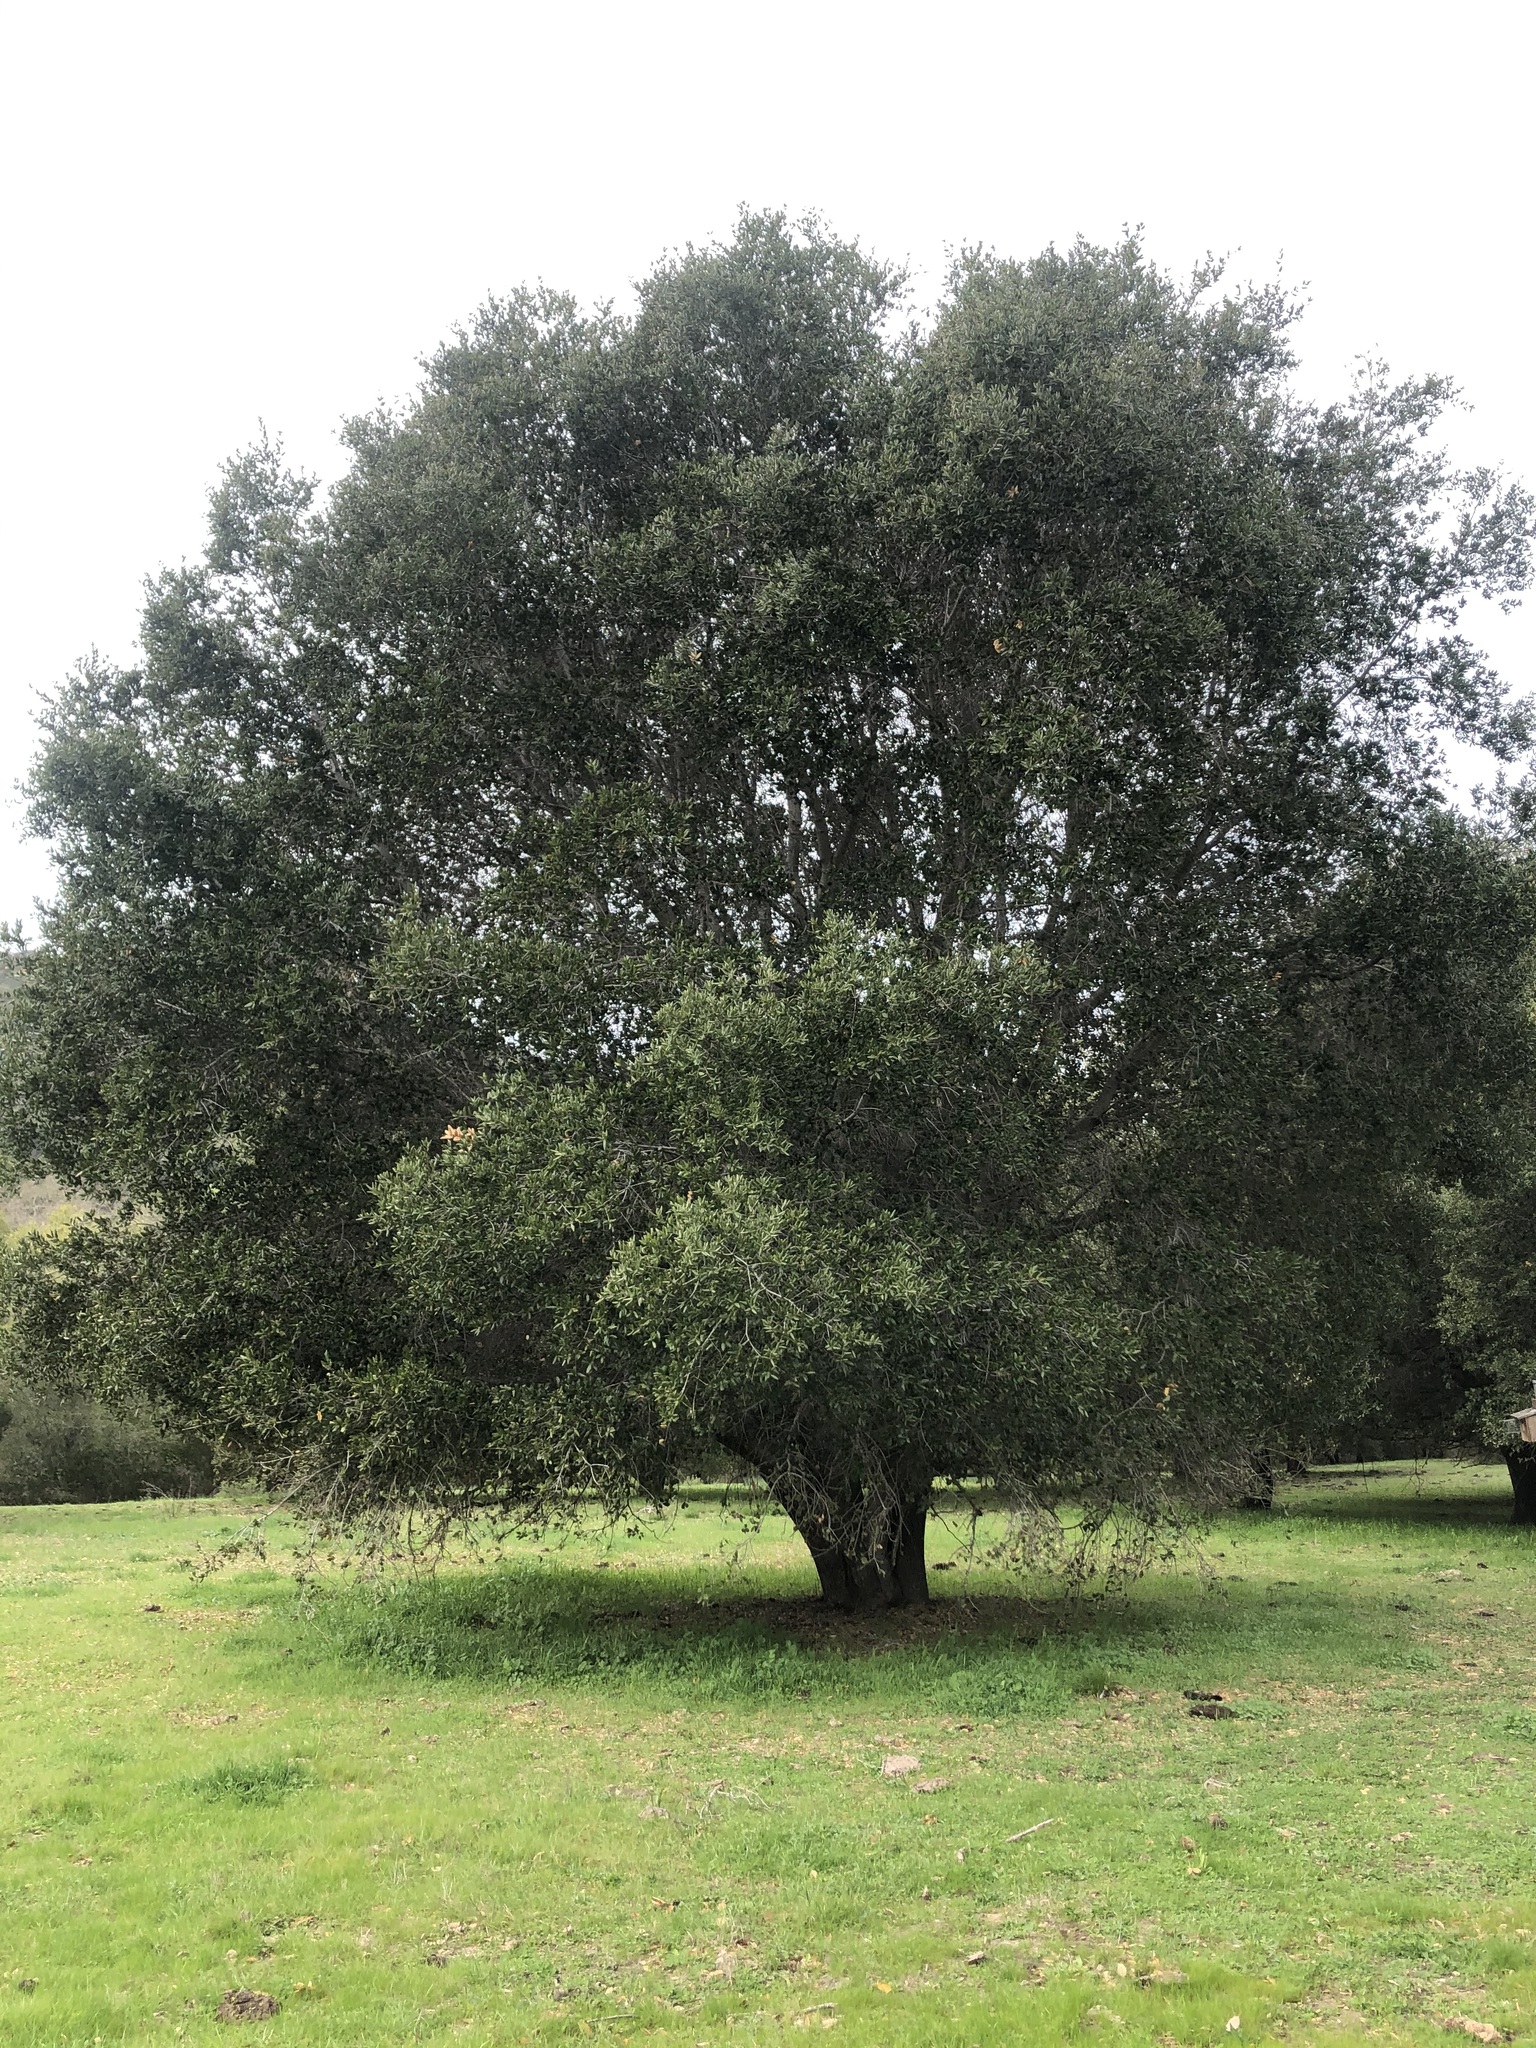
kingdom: Plantae
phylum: Tracheophyta
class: Magnoliopsida
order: Fagales
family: Fagaceae
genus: Quercus
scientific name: Quercus agrifolia
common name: California live oak
